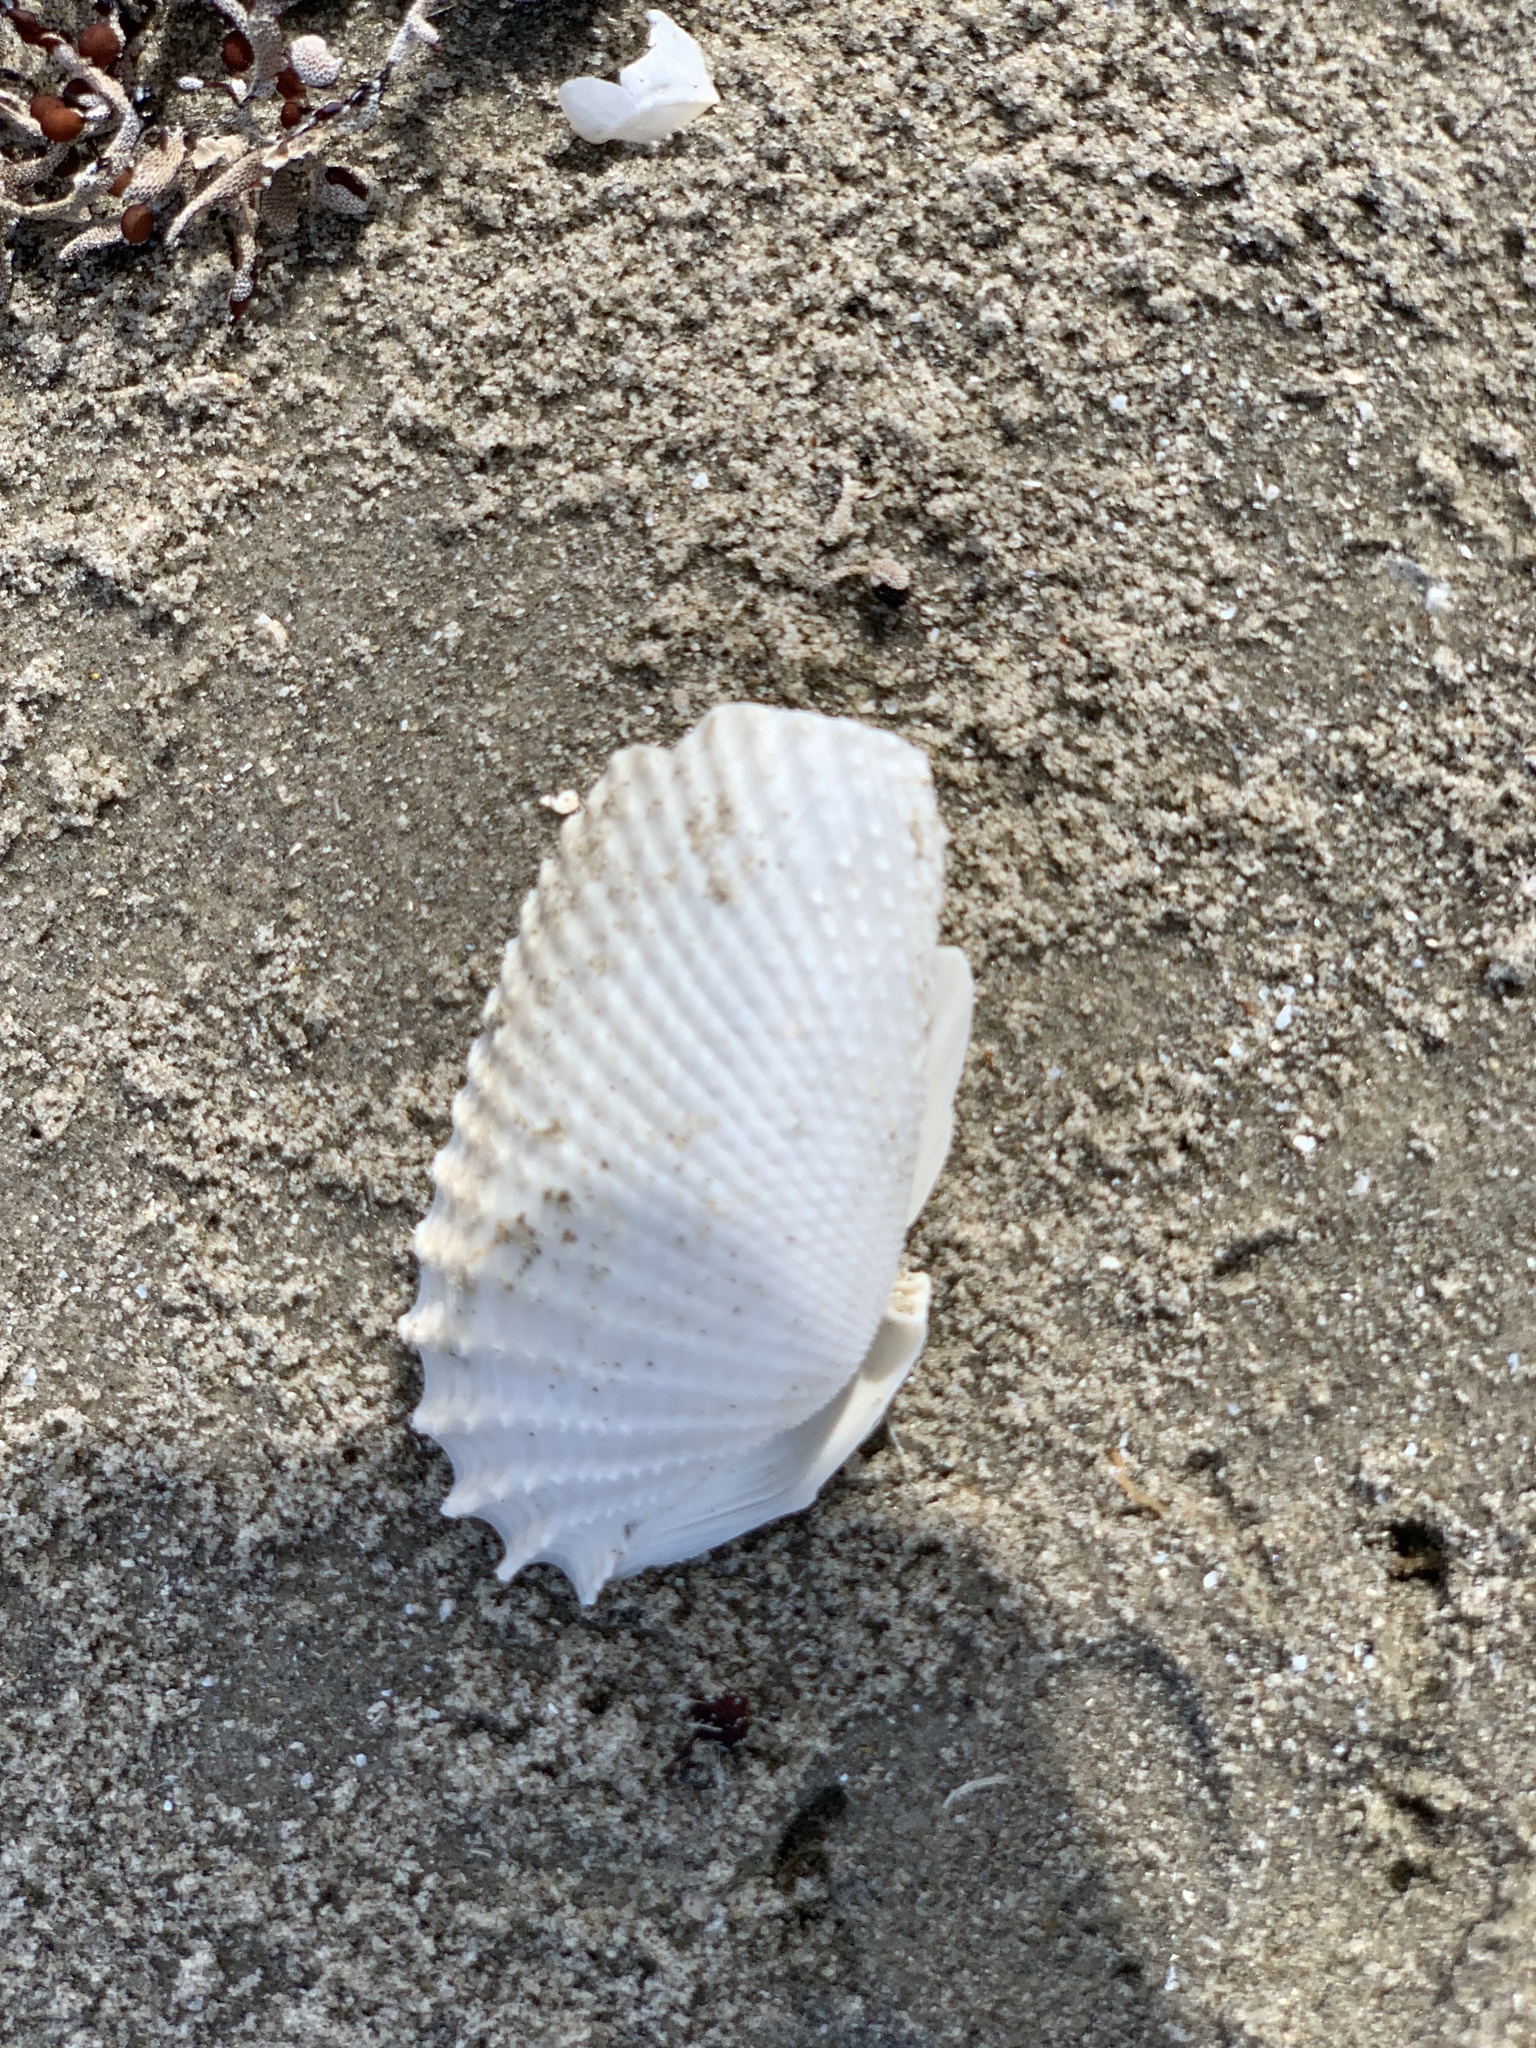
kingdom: Animalia
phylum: Mollusca
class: Bivalvia
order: Myida
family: Pholadidae
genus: Cyrtopleura
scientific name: Cyrtopleura costata
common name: Angel wing
